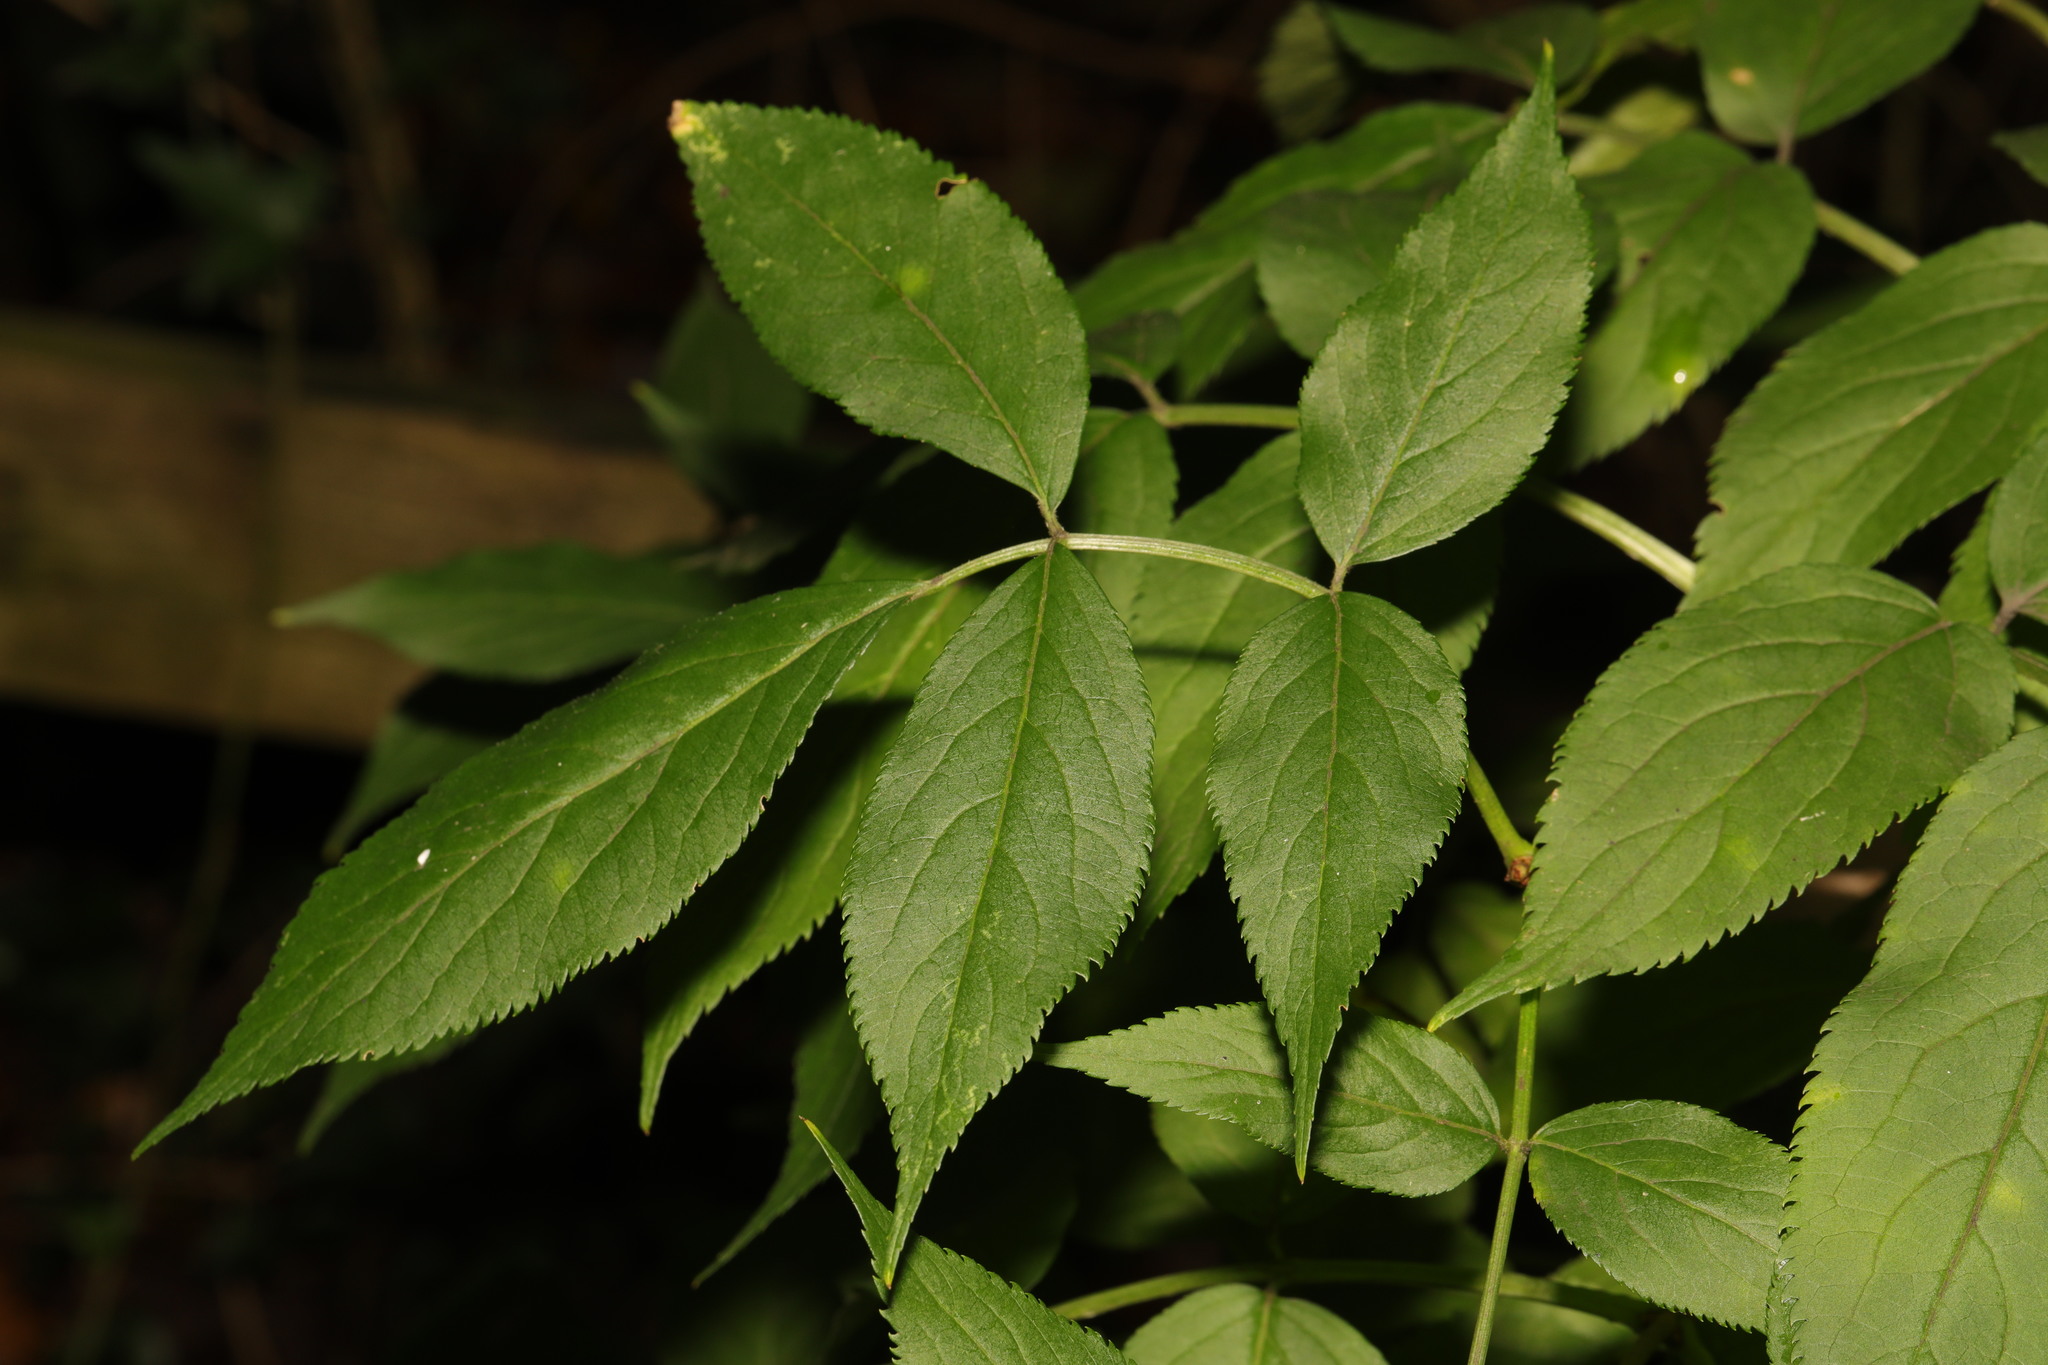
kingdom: Plantae
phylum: Tracheophyta
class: Magnoliopsida
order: Dipsacales
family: Viburnaceae
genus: Sambucus
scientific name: Sambucus nigra
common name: Elder
